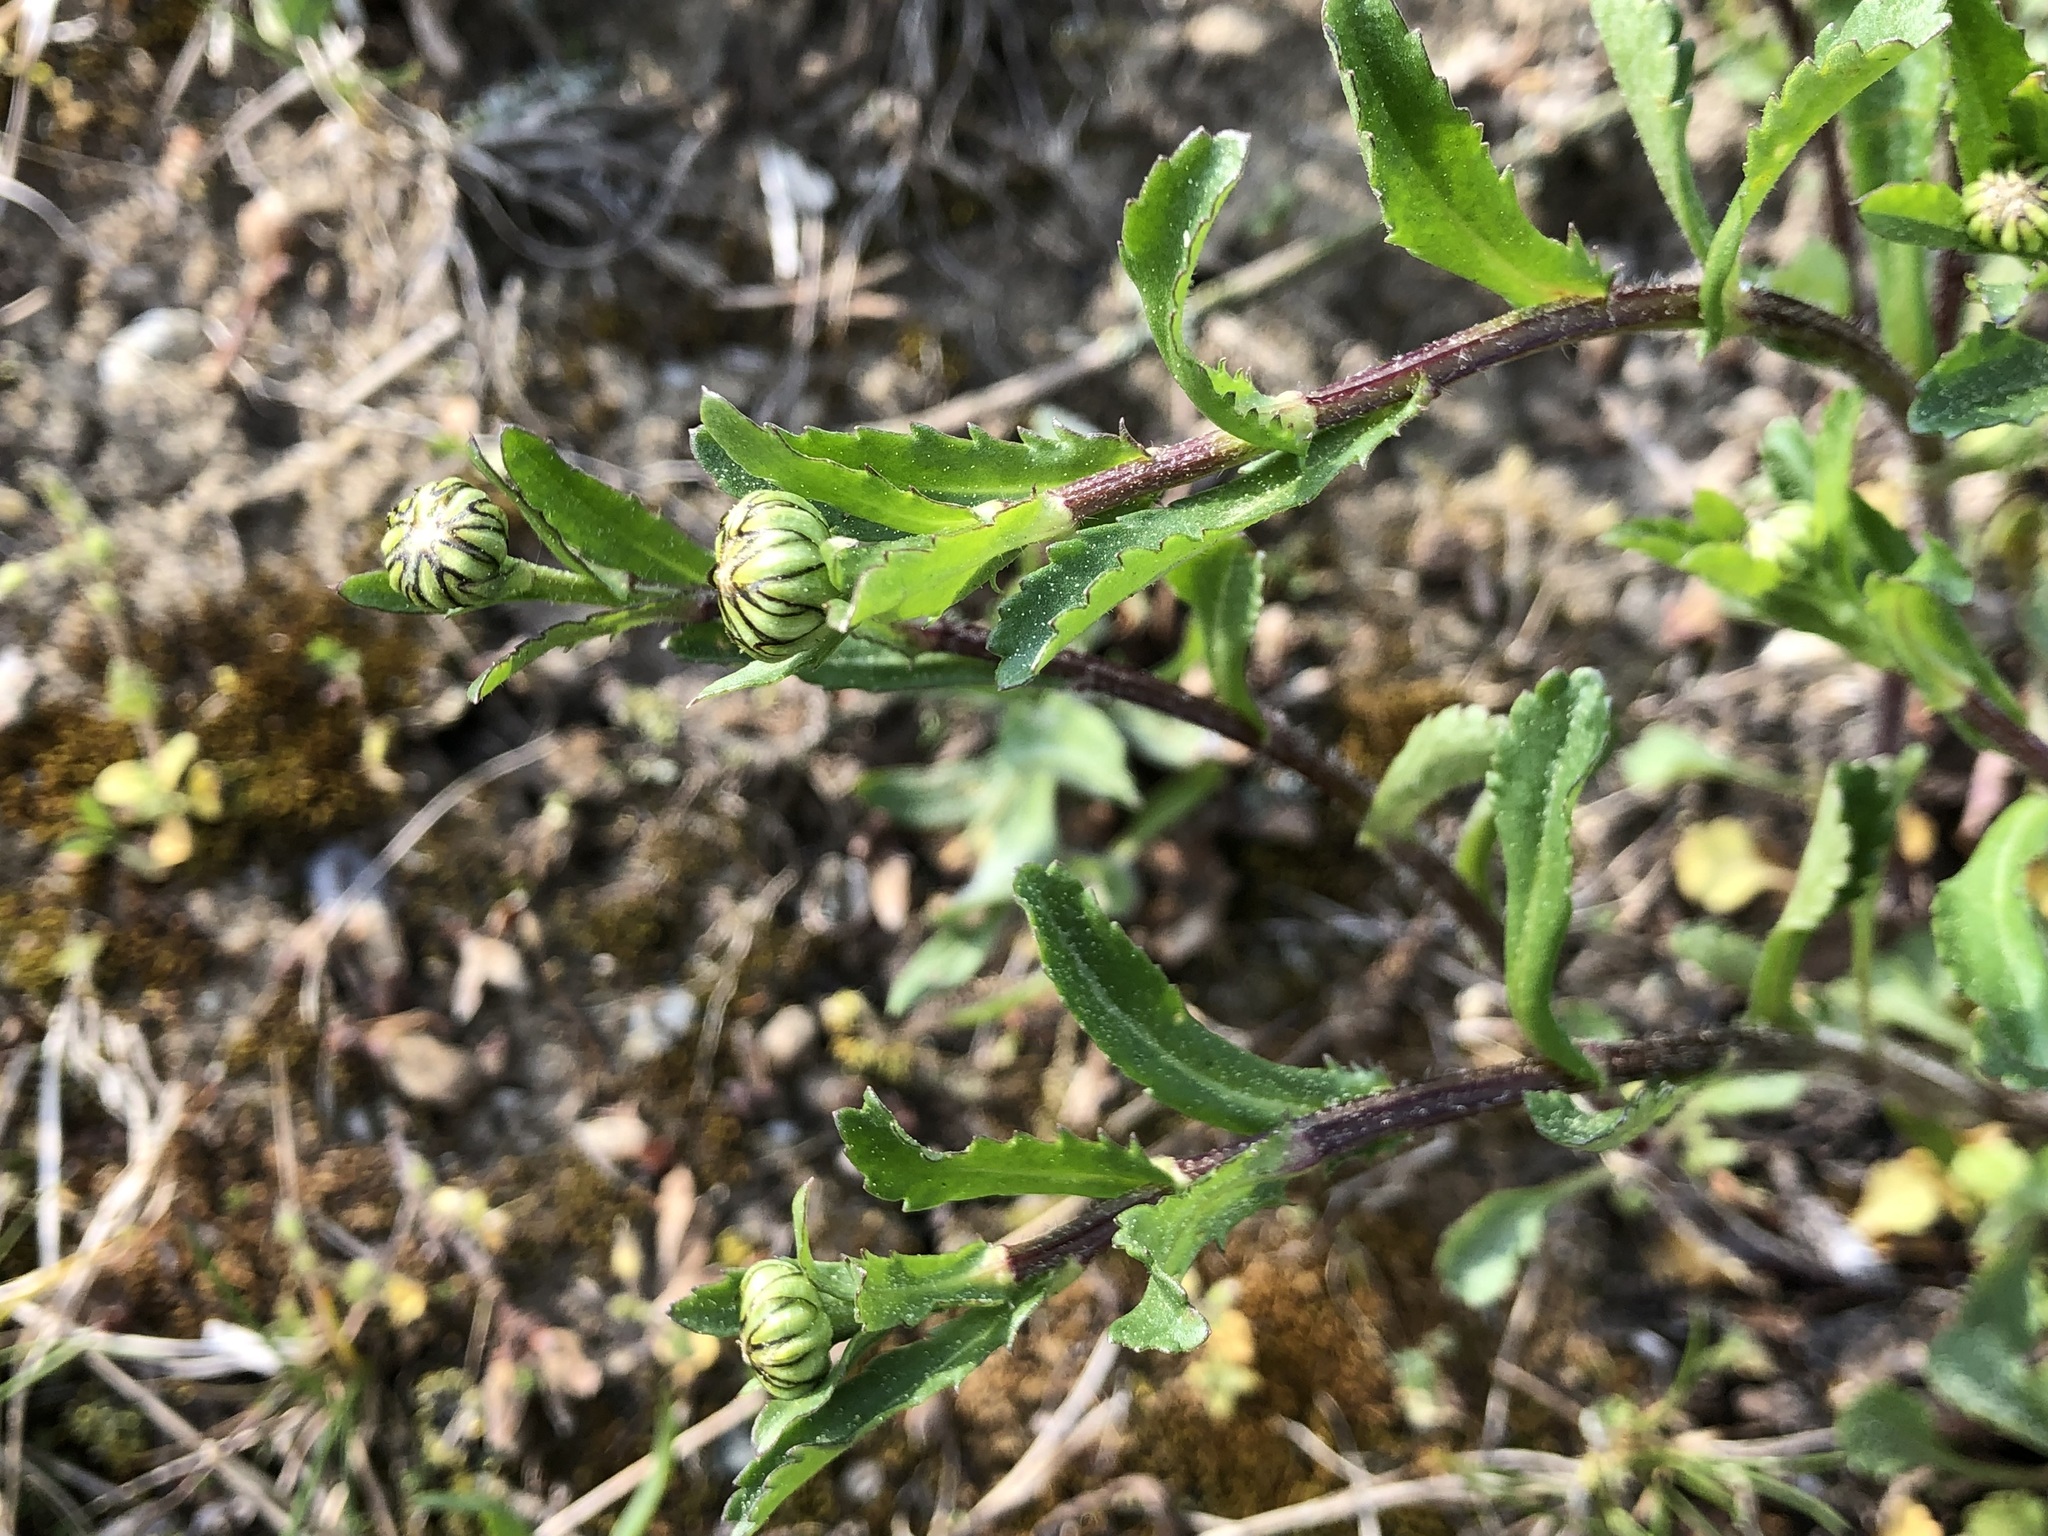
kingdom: Plantae
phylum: Tracheophyta
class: Magnoliopsida
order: Asterales
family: Asteraceae
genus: Leucanthemum
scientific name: Leucanthemum vulgare
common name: Oxeye daisy
